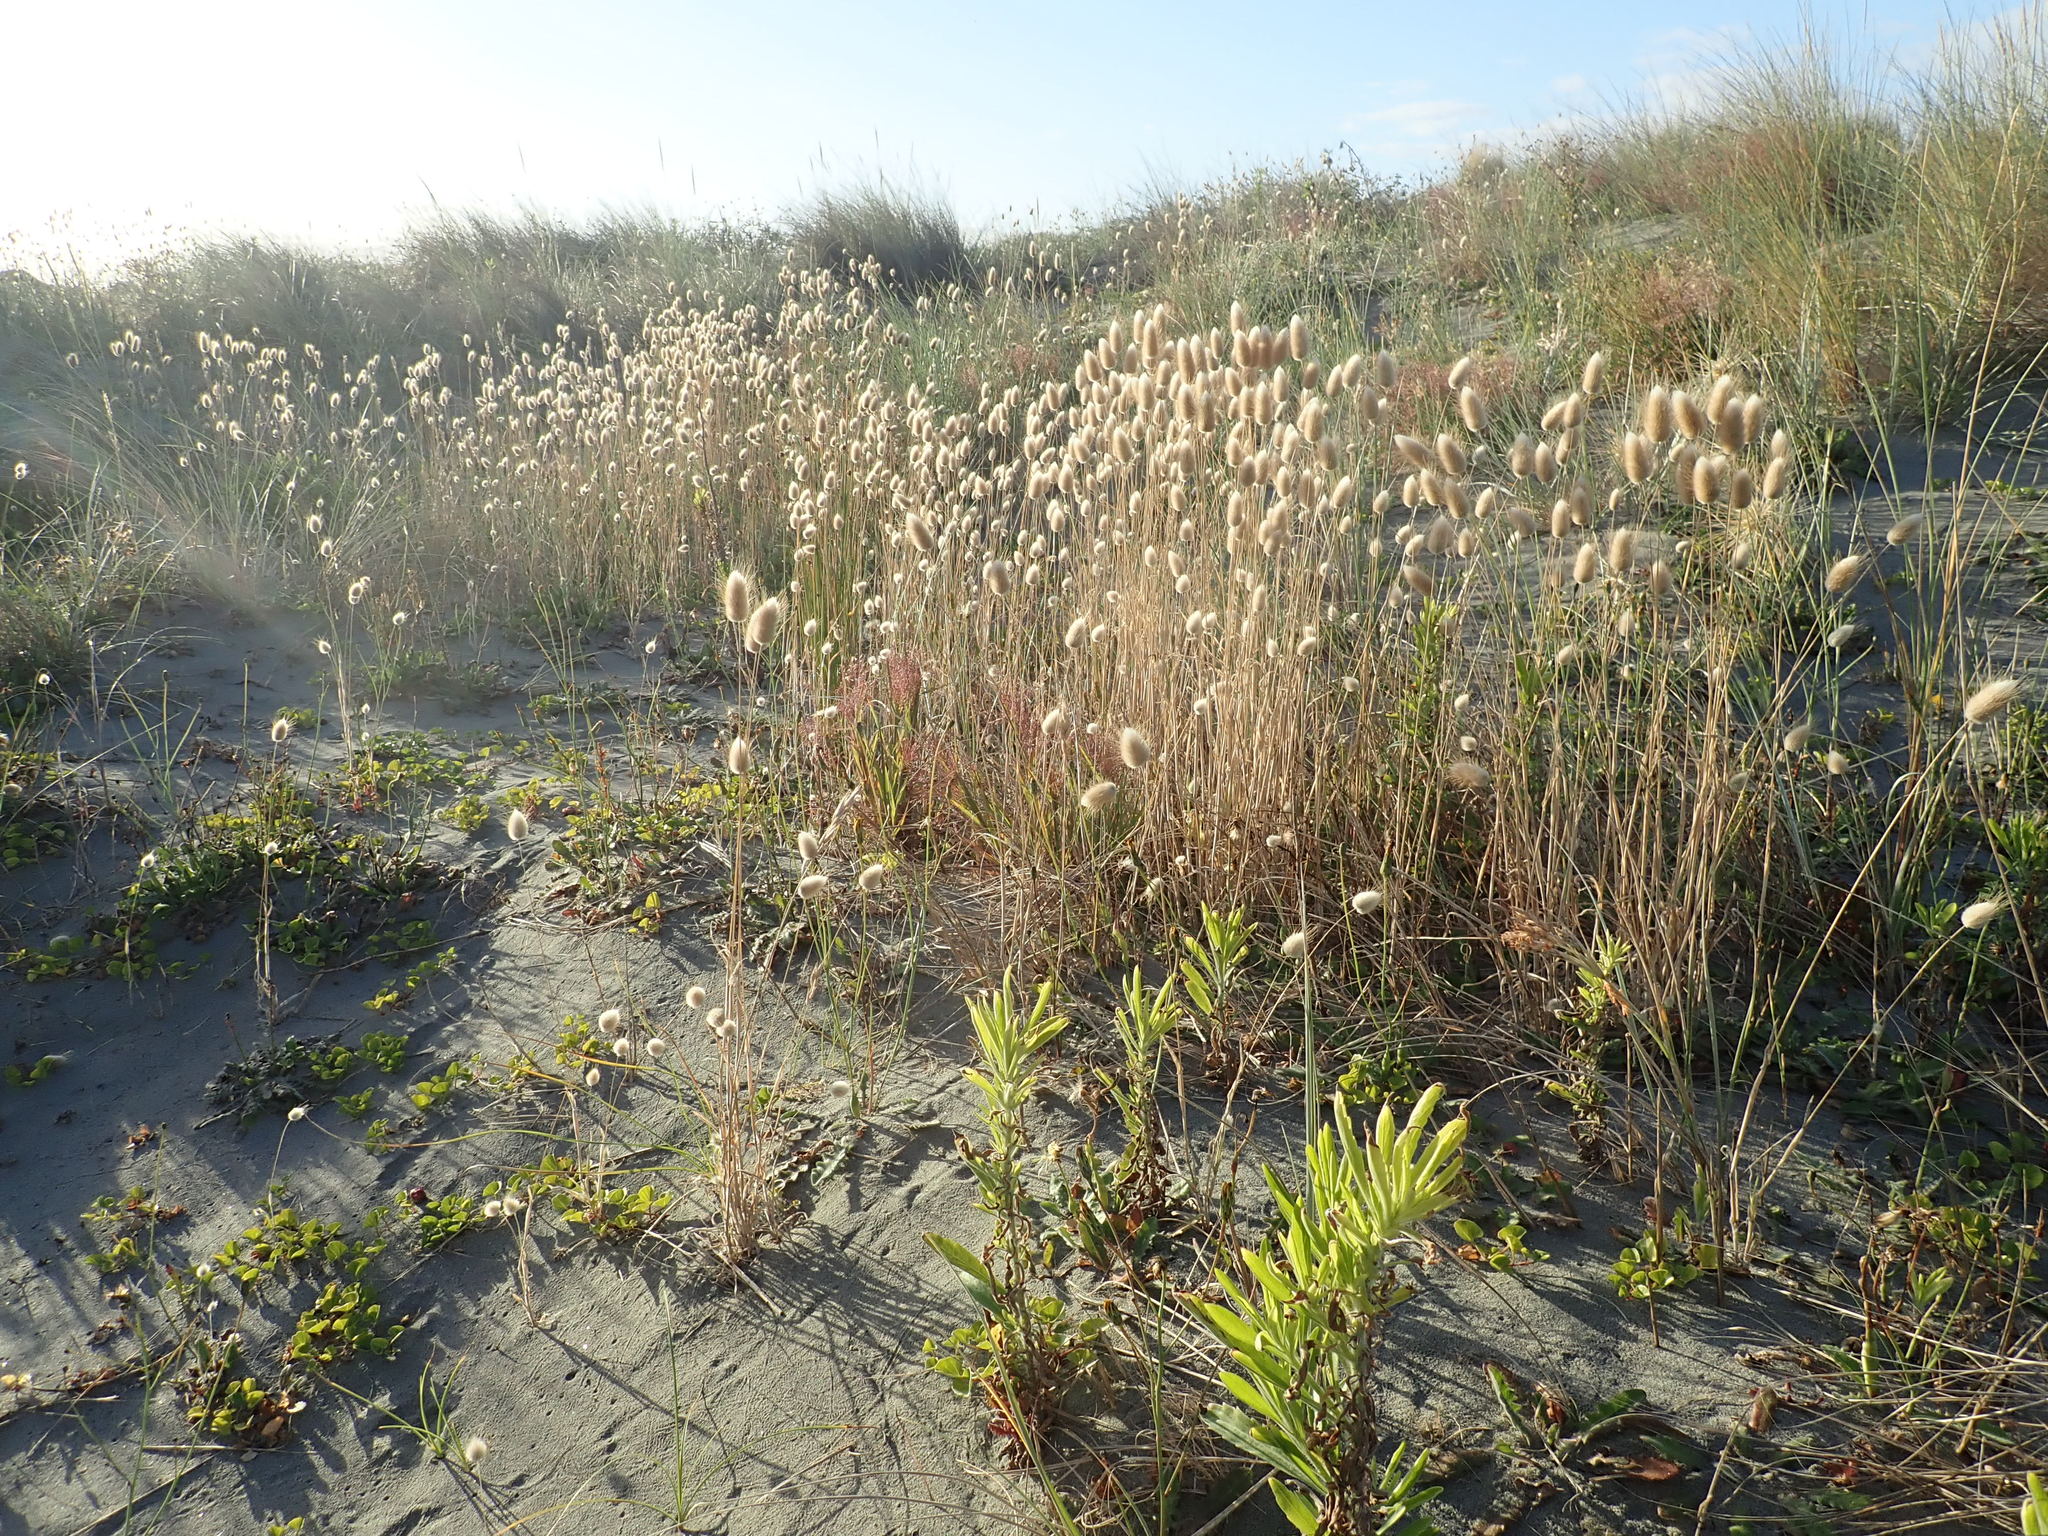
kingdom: Plantae
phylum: Tracheophyta
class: Liliopsida
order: Poales
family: Poaceae
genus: Lagurus
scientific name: Lagurus ovatus
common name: Hare's-tail
